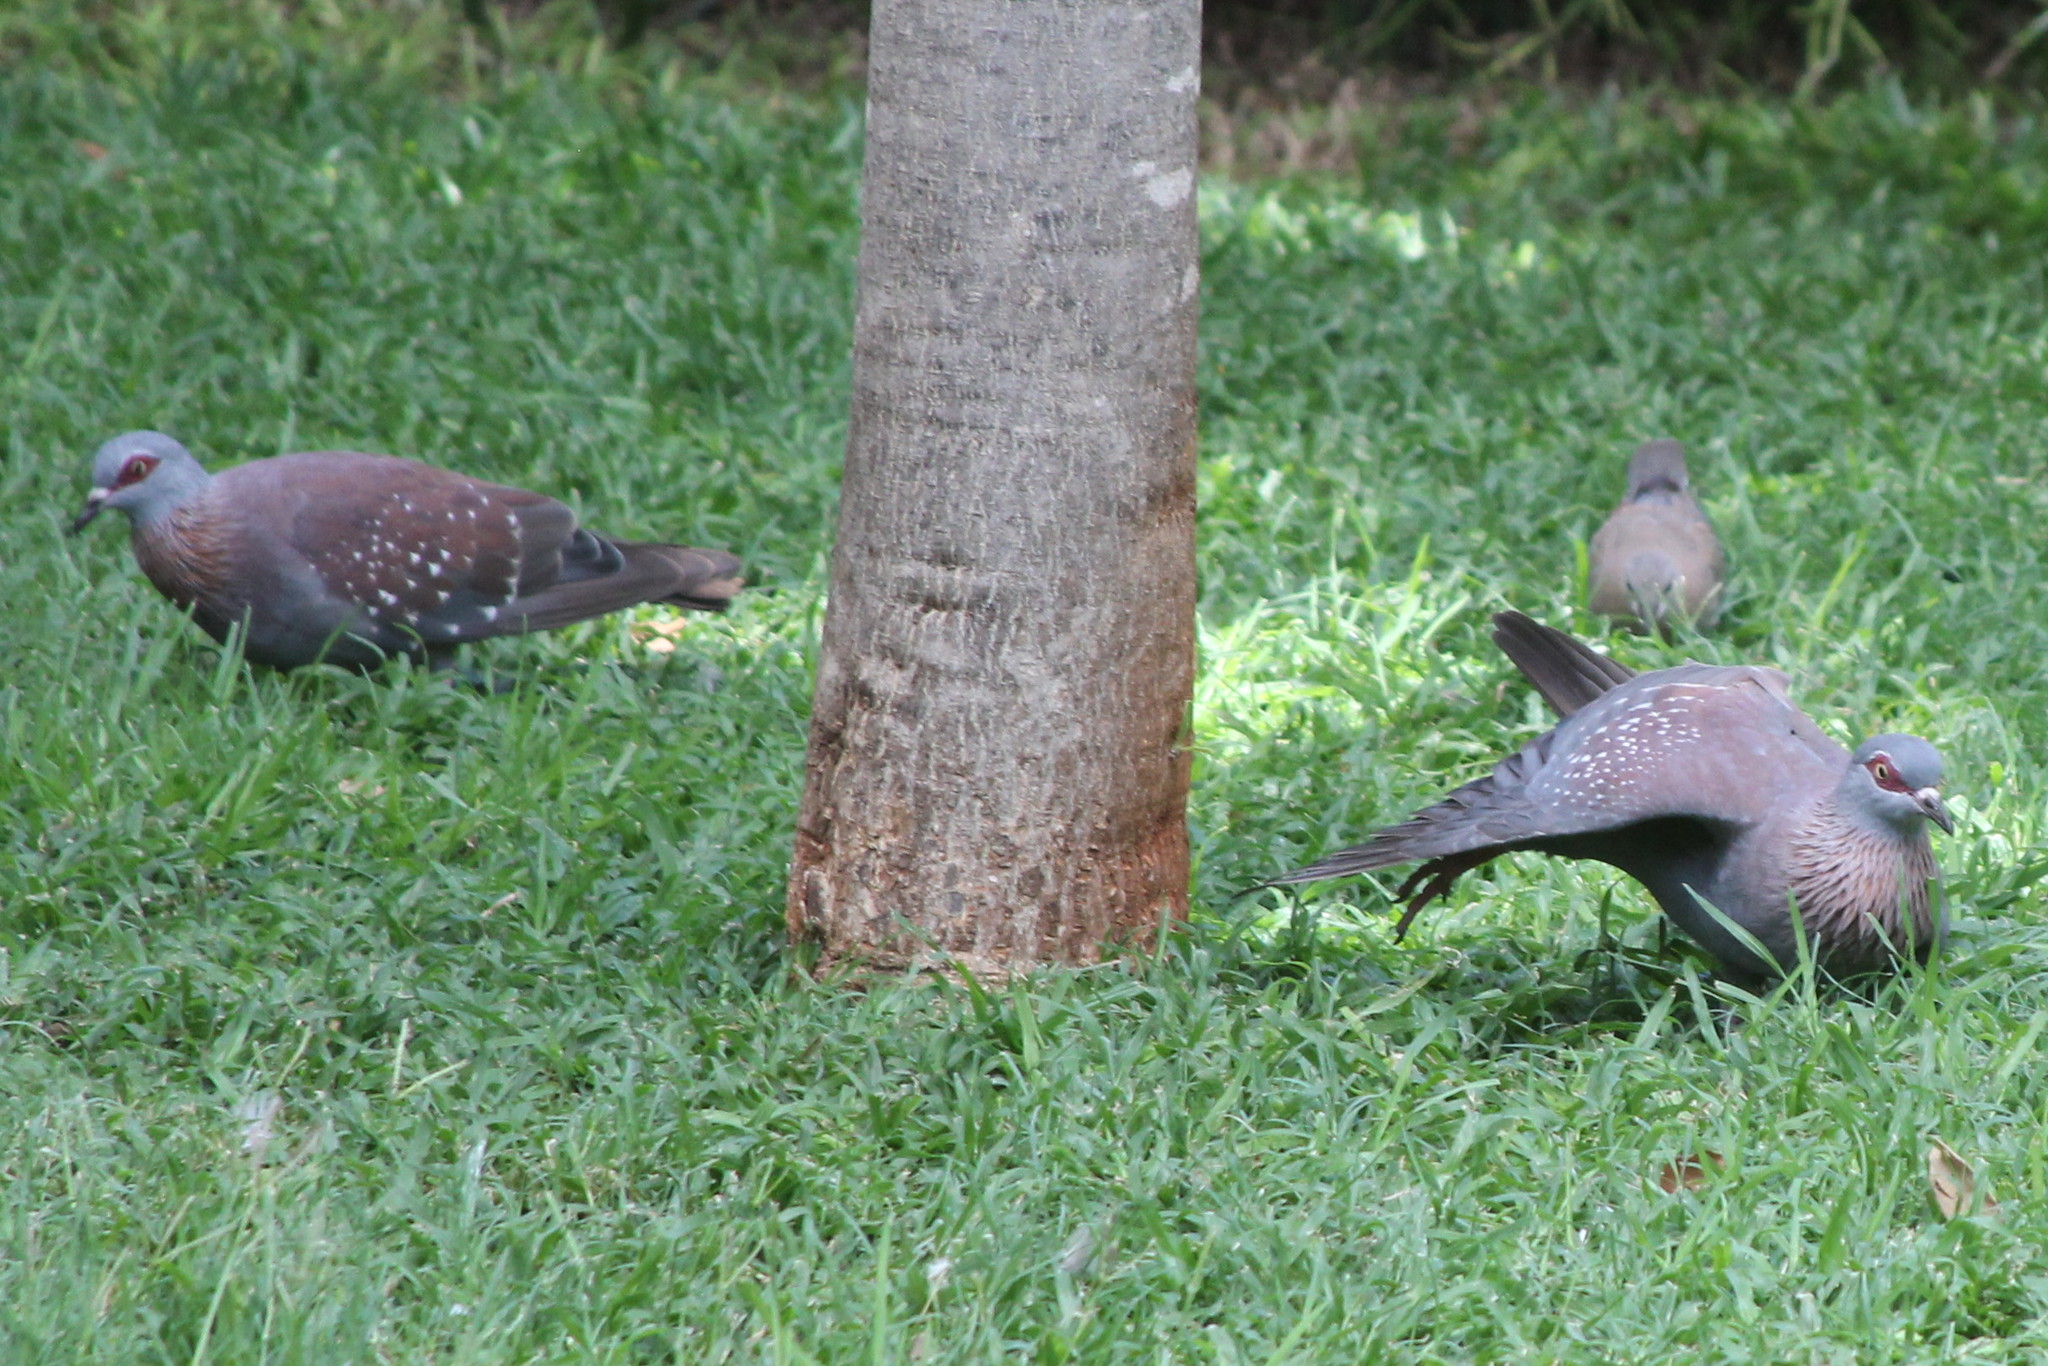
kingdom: Animalia
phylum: Chordata
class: Aves
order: Columbiformes
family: Columbidae
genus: Columba
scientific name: Columba guinea
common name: Speckled pigeon
